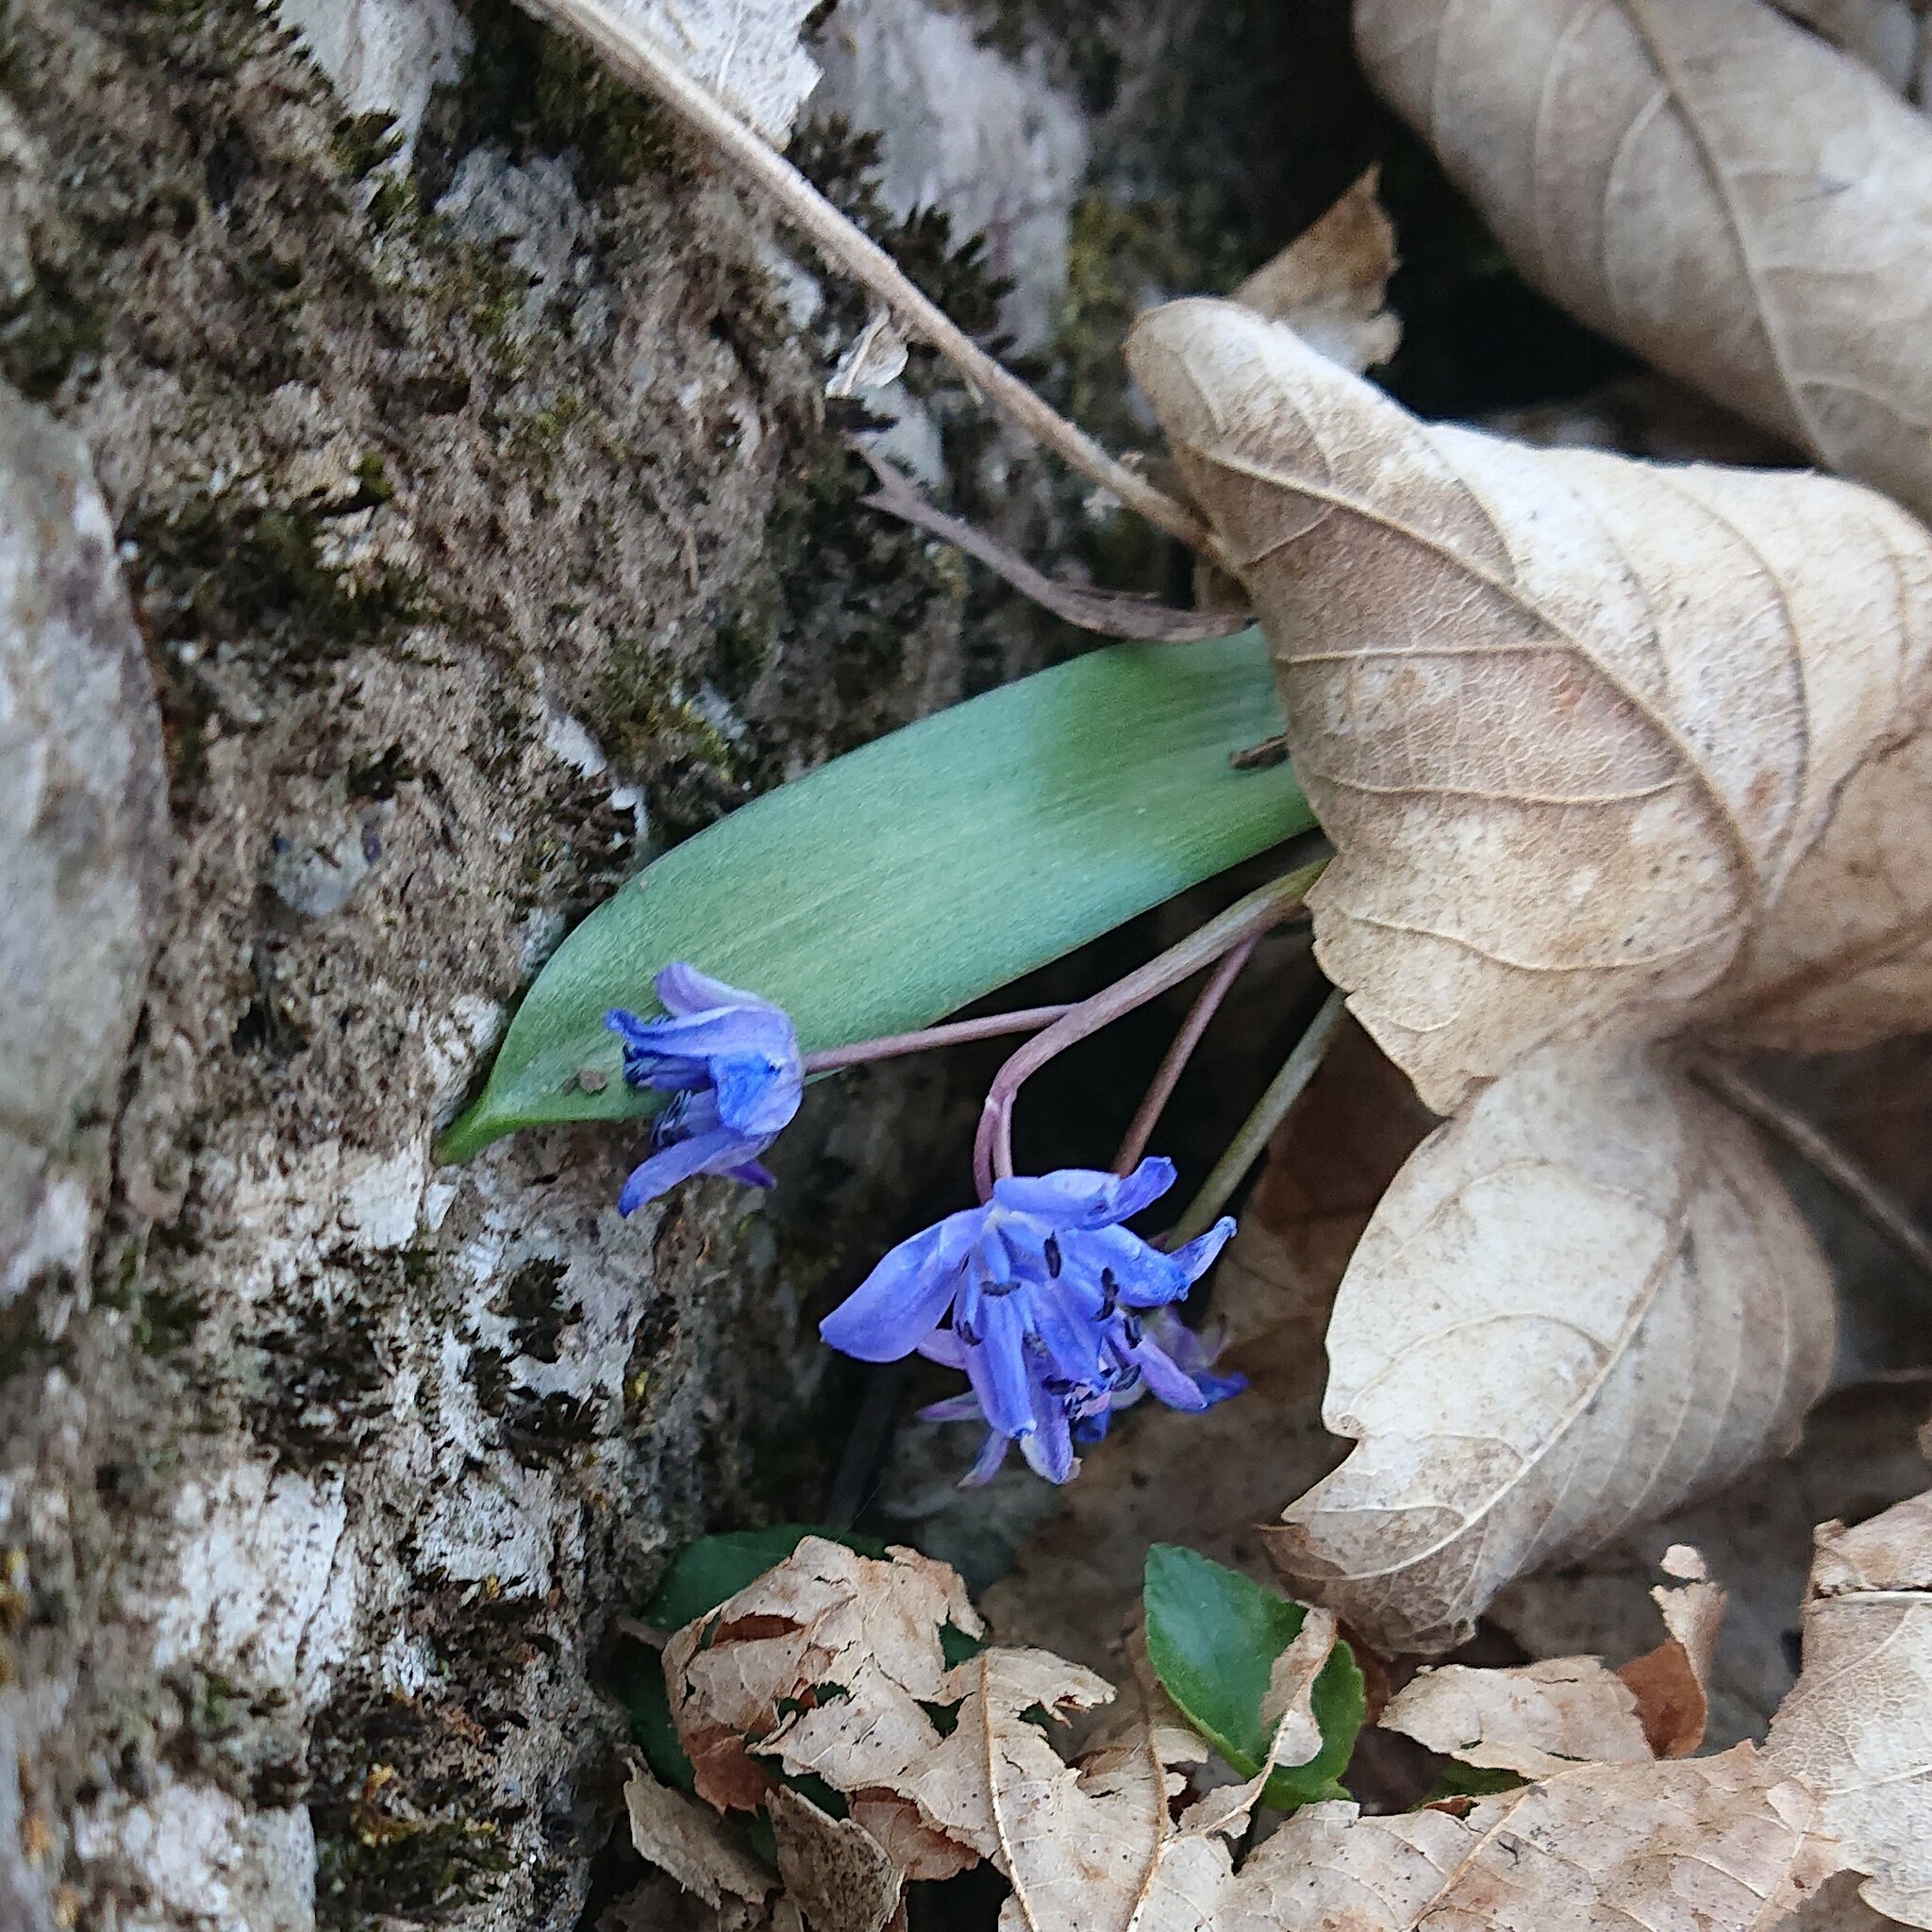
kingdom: Plantae
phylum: Tracheophyta
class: Liliopsida
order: Asparagales
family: Asparagaceae
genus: Scilla
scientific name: Scilla bifolia
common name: Alpine squill
